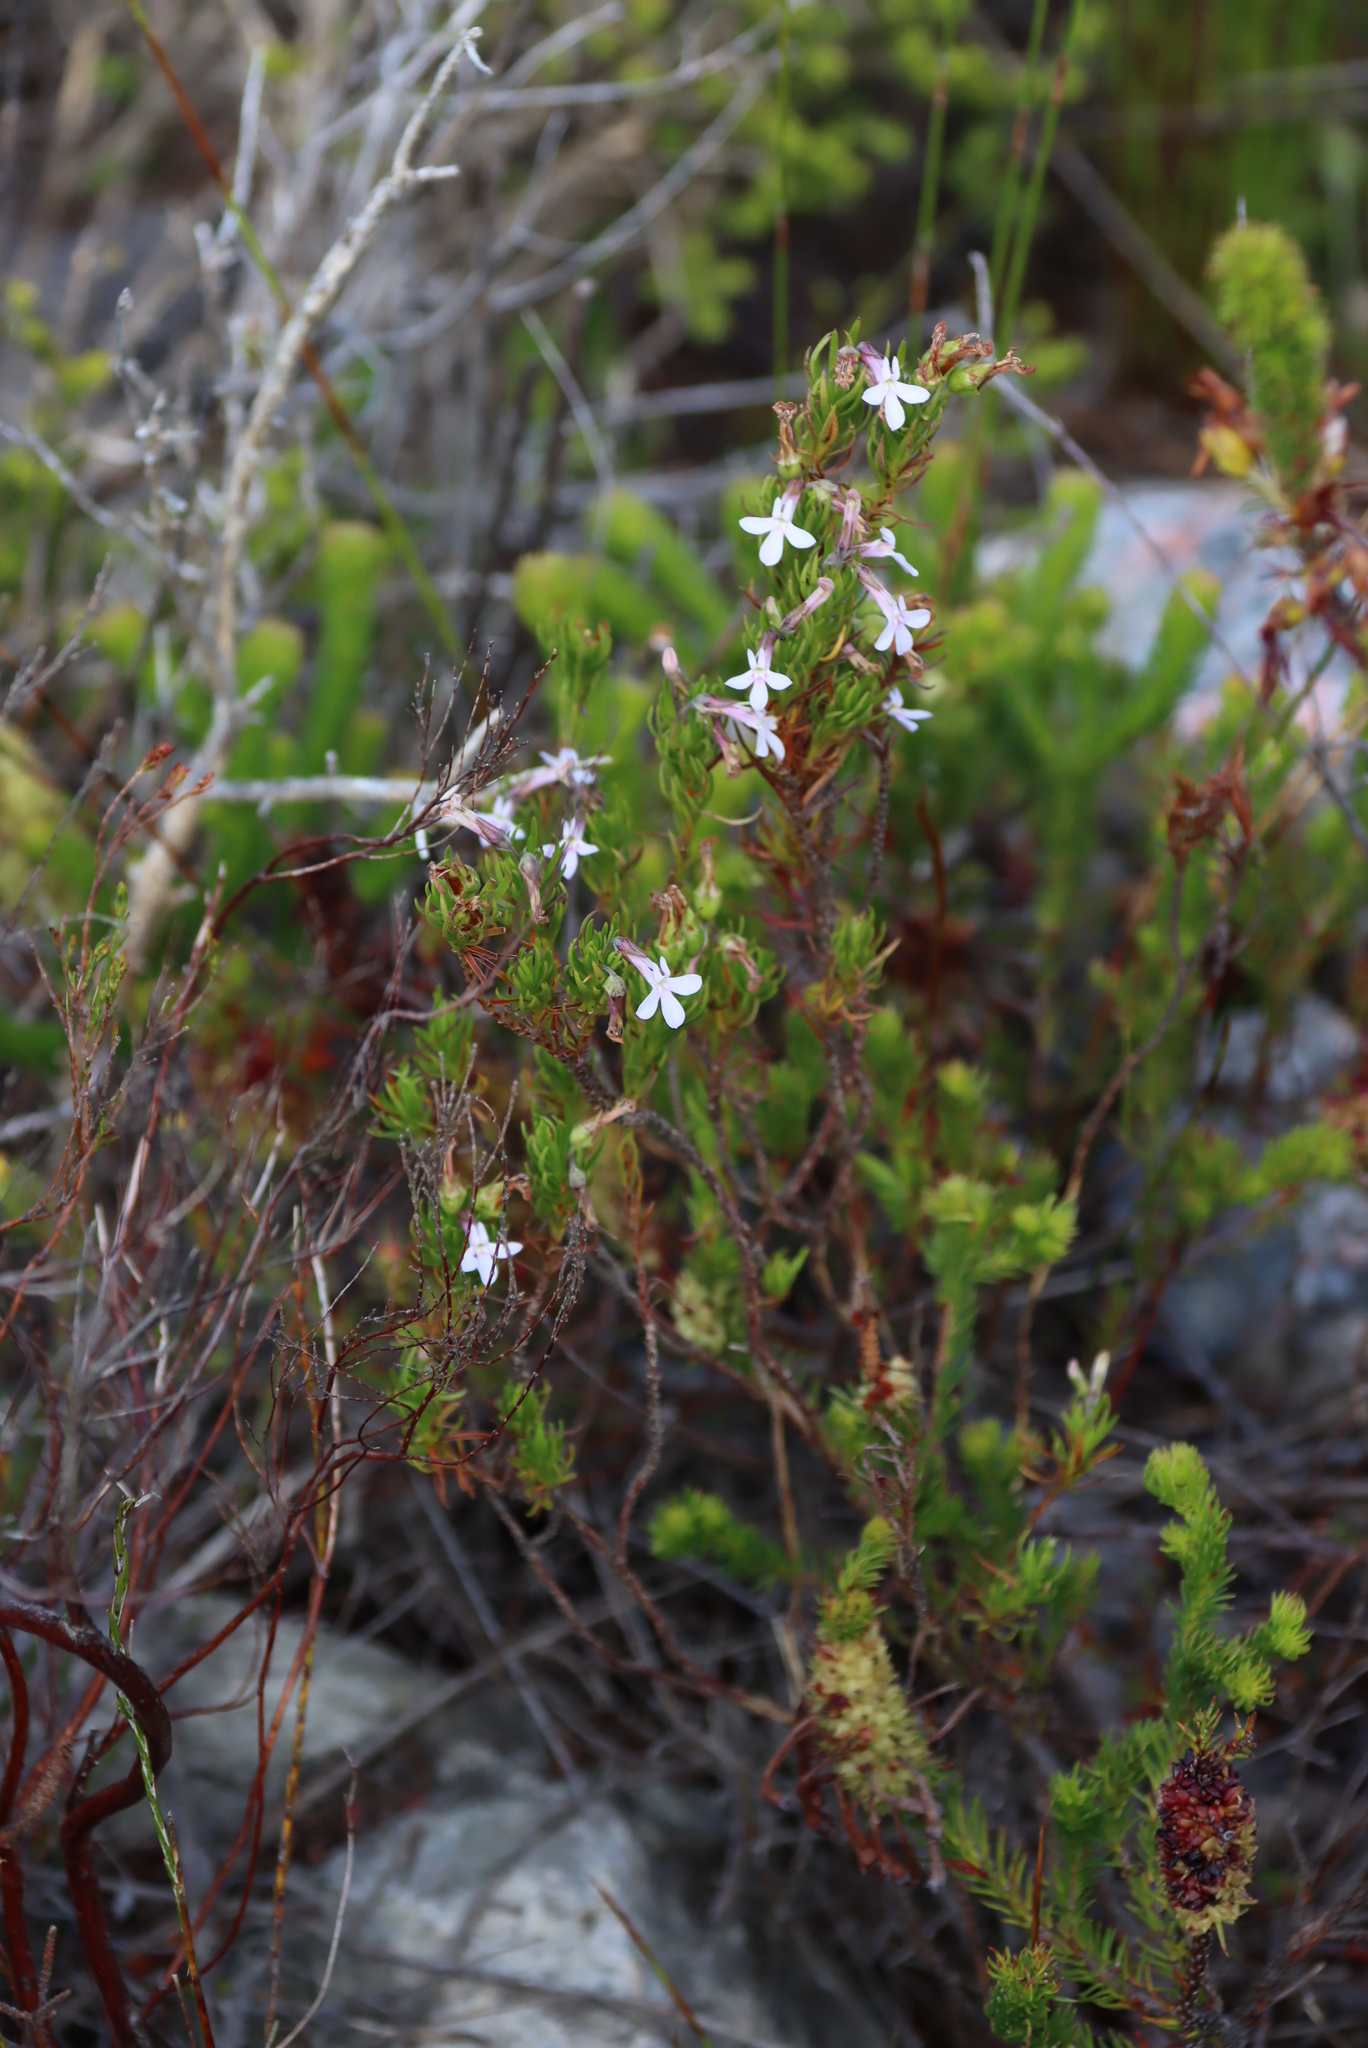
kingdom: Plantae
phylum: Tracheophyta
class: Magnoliopsida
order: Asterales
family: Campanulaceae
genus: Lobelia
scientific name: Lobelia pinifolia
